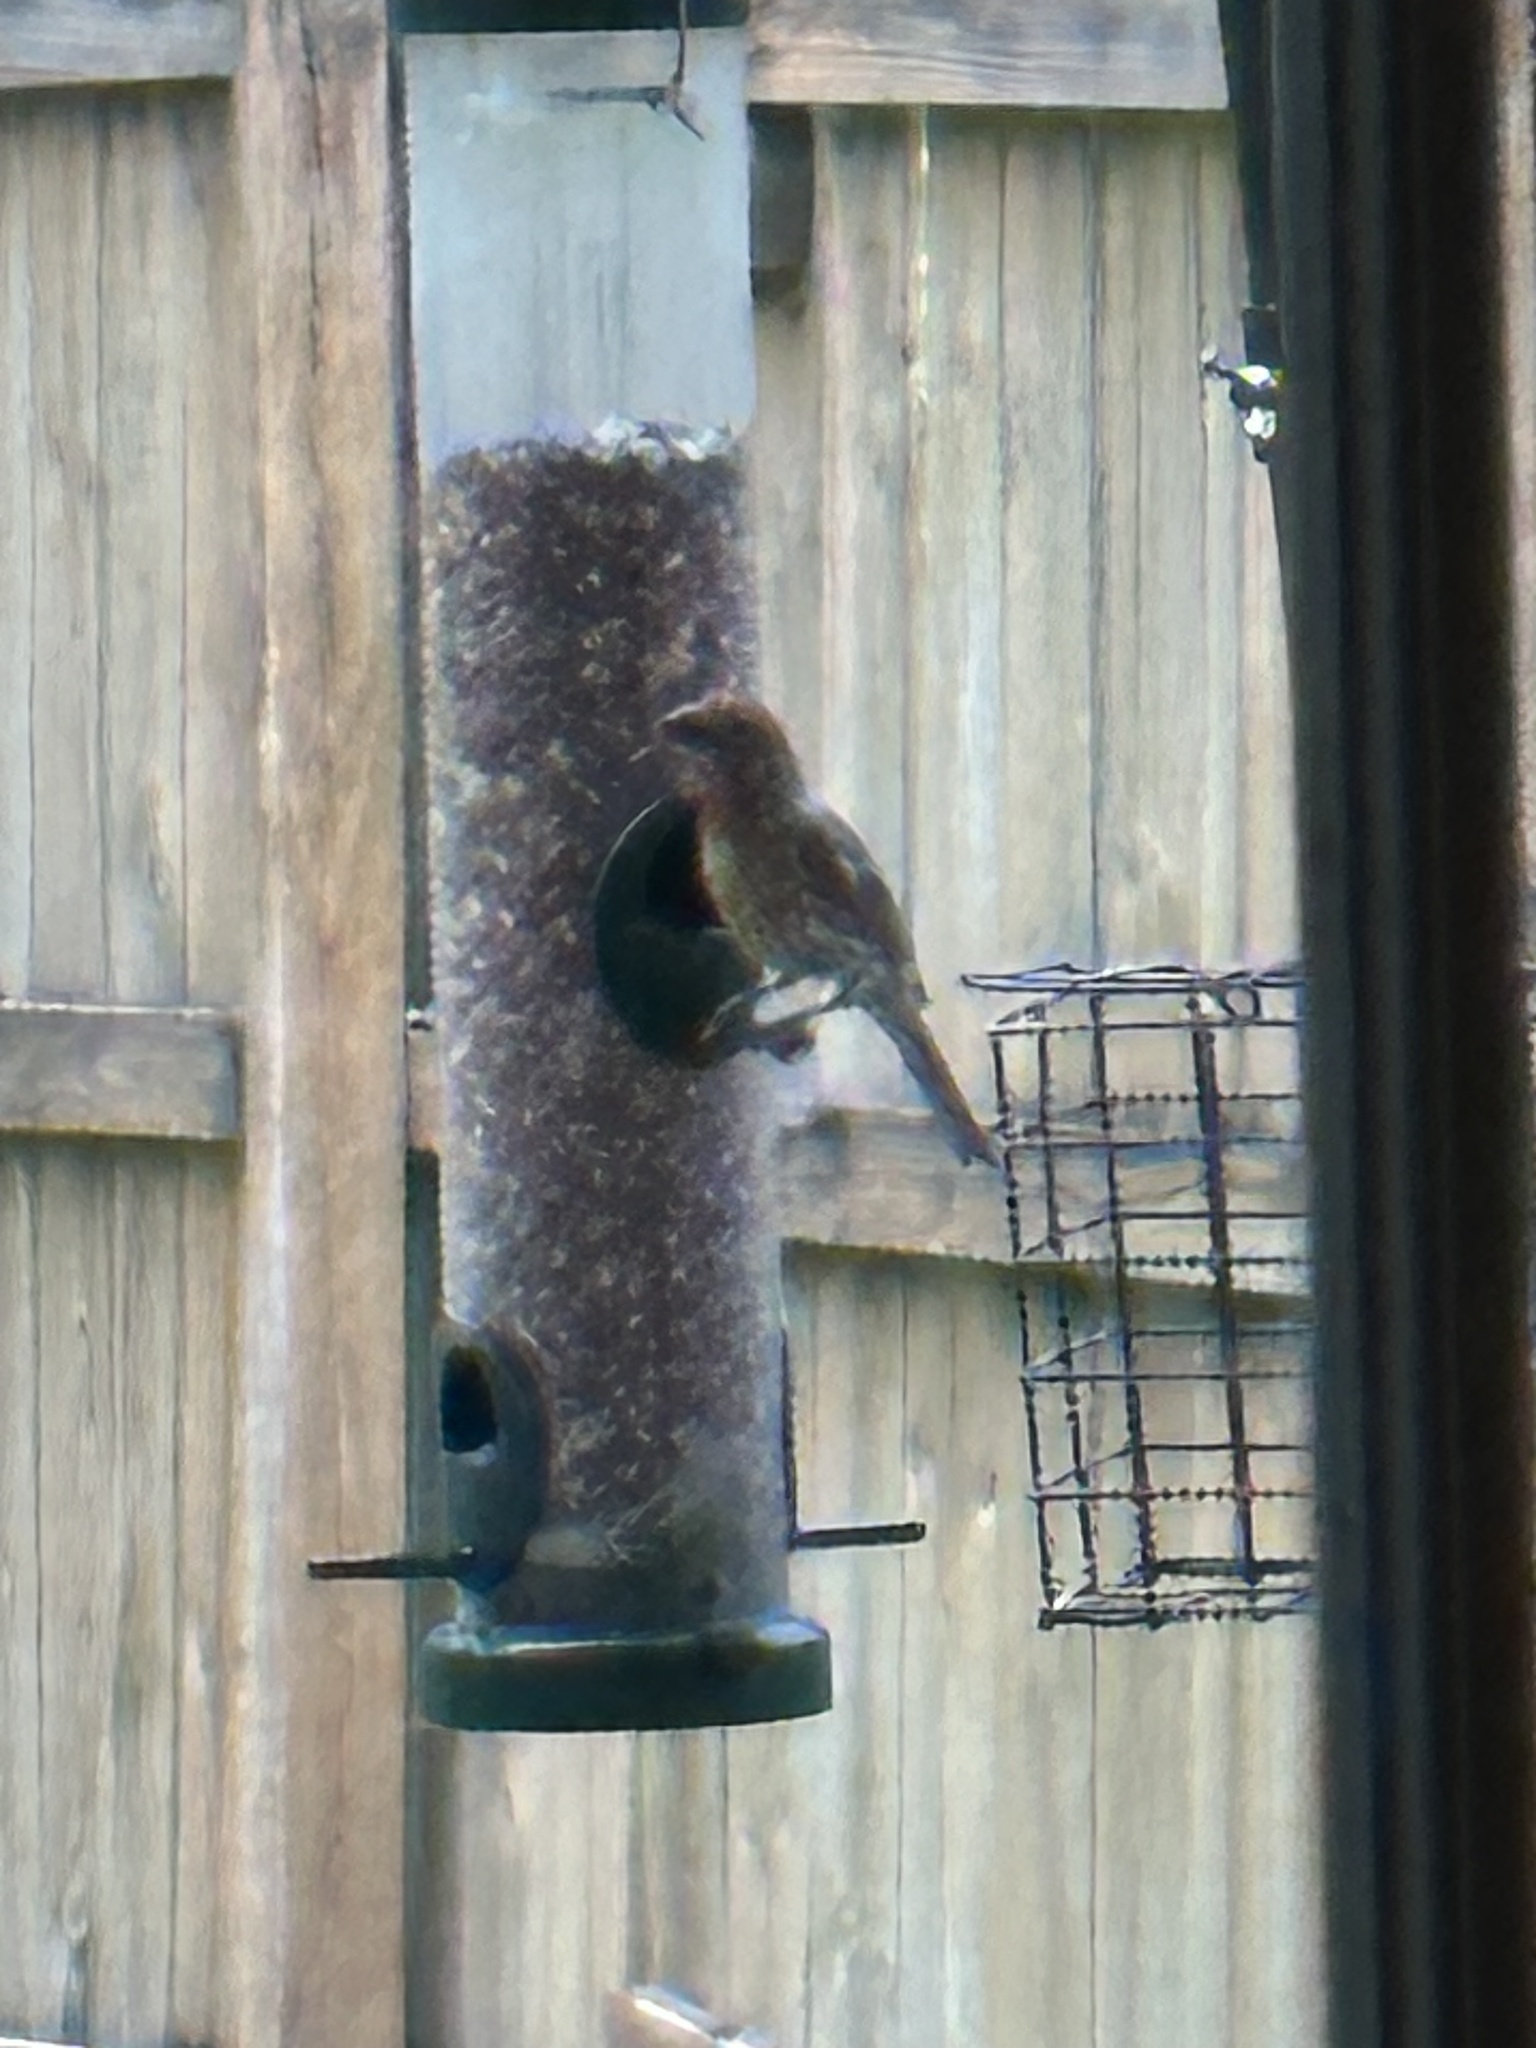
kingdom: Animalia
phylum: Chordata
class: Aves
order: Passeriformes
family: Fringillidae
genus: Haemorhous
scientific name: Haemorhous mexicanus
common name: House finch
